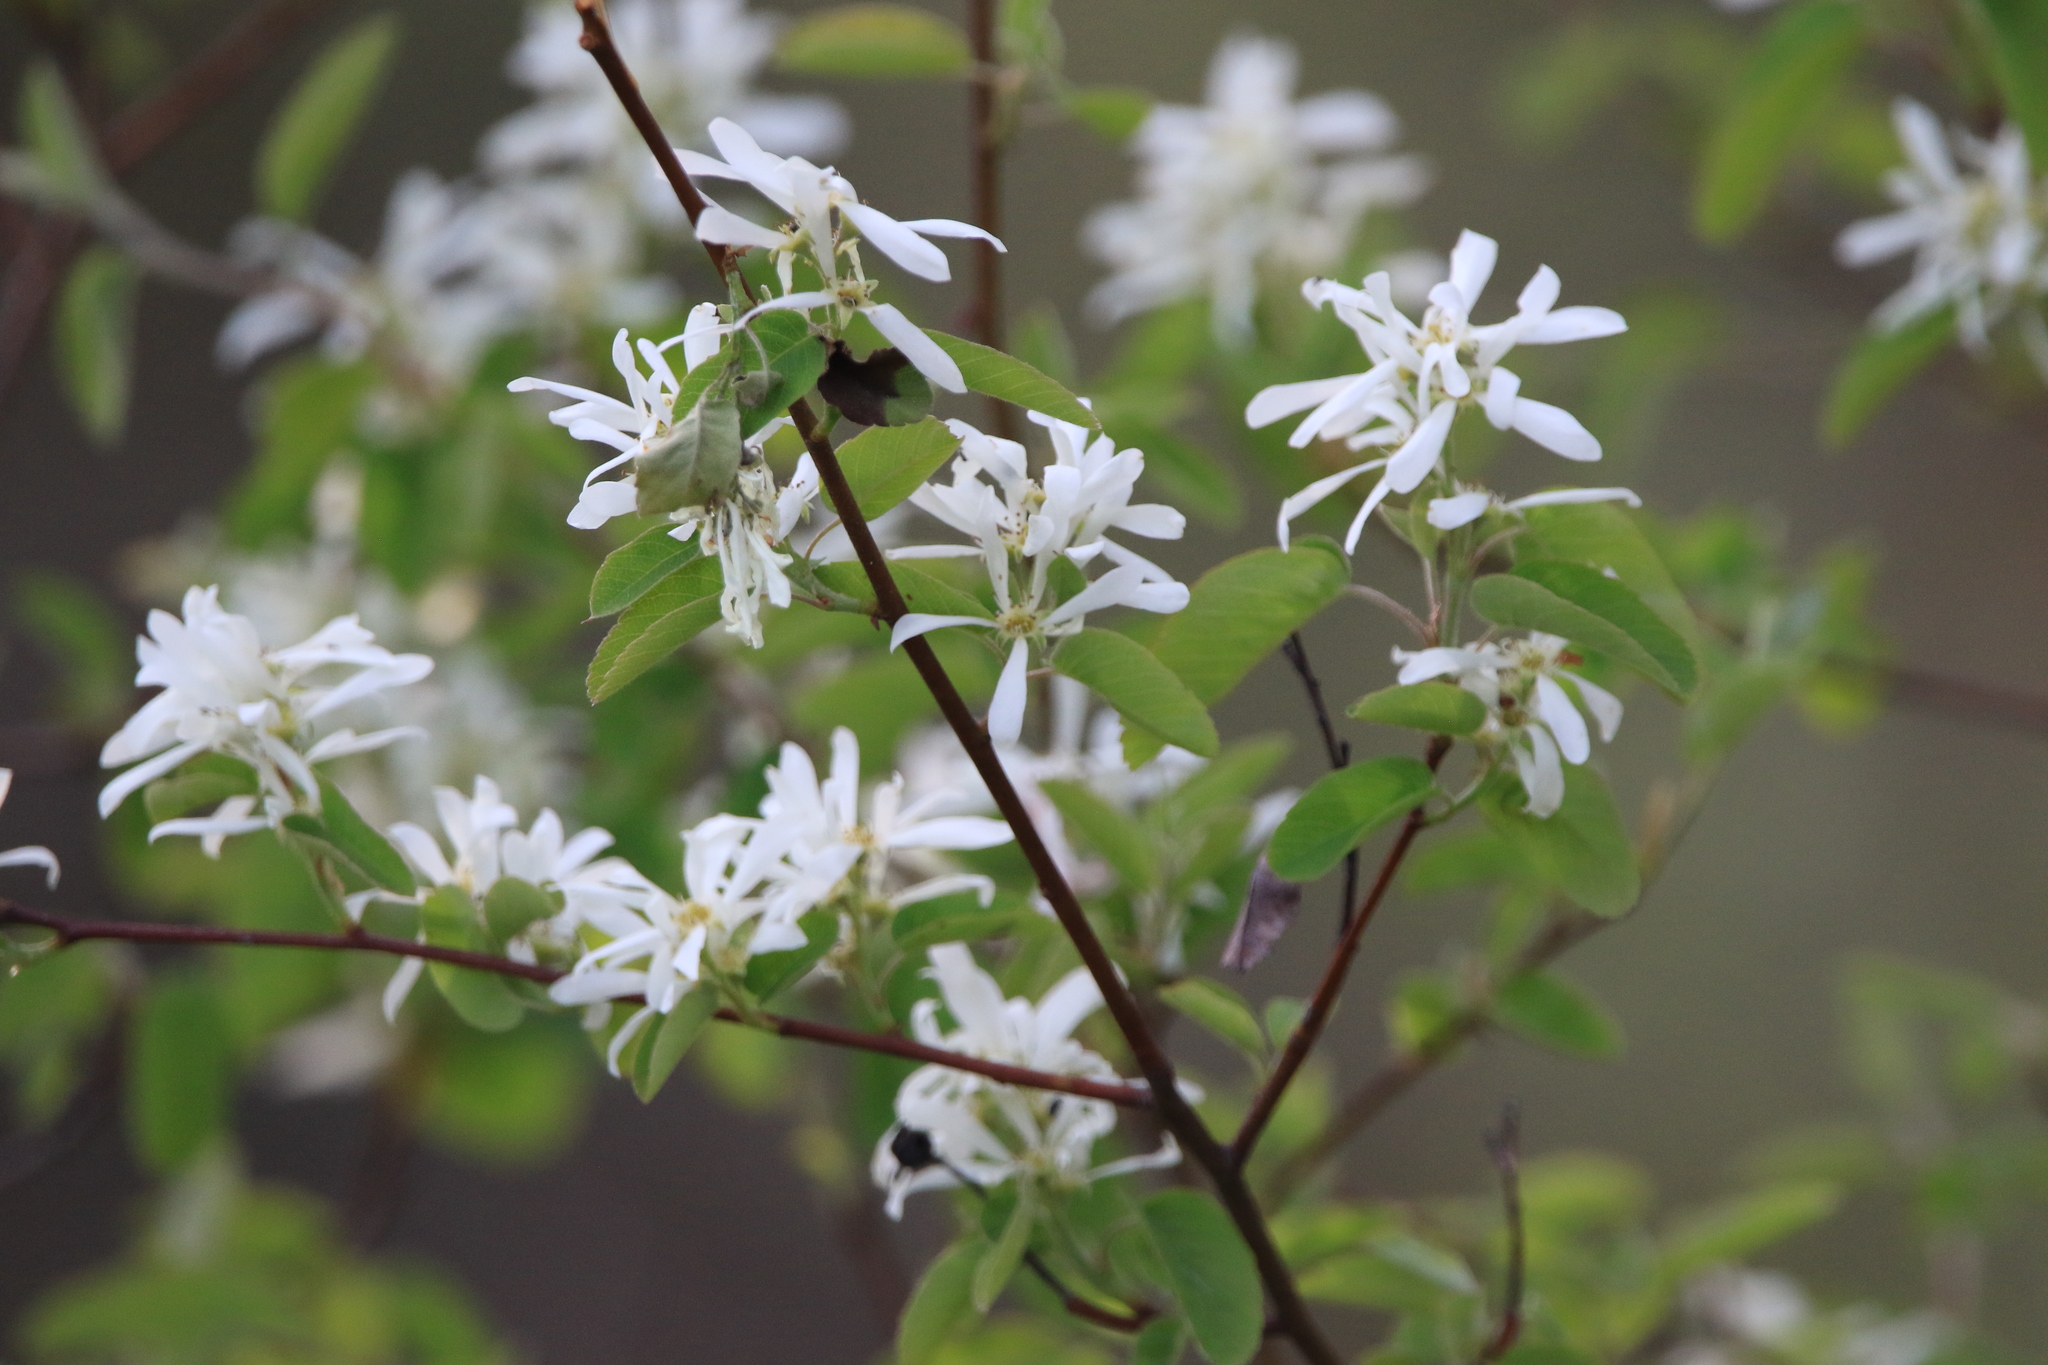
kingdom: Plantae
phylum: Tracheophyta
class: Magnoliopsida
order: Rosales
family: Rosaceae
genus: Amelanchier
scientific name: Amelanchier alnifolia
